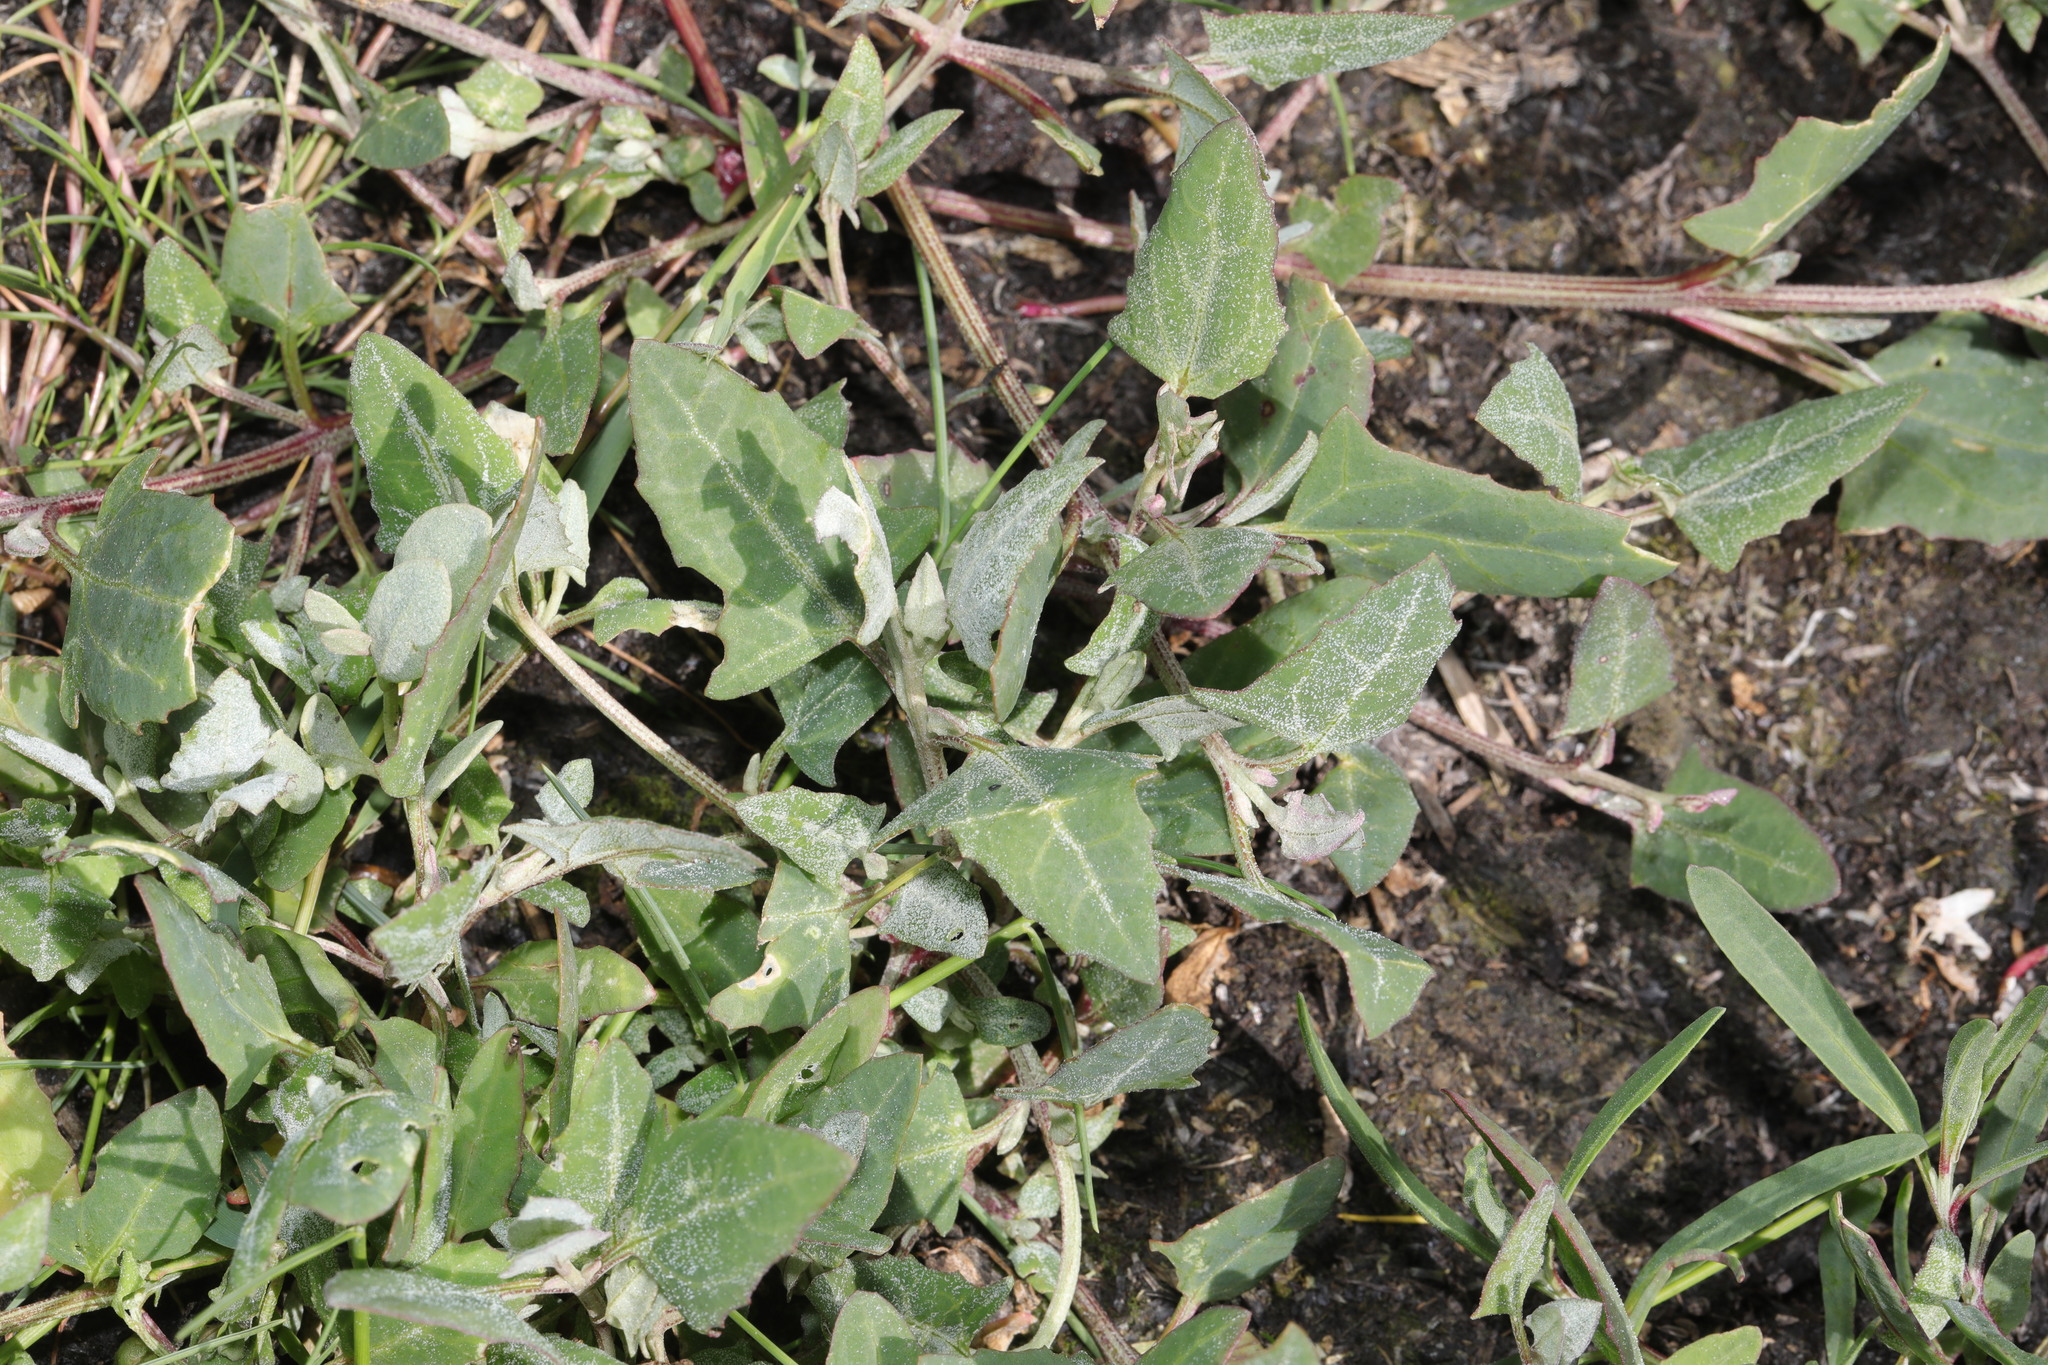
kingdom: Plantae
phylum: Tracheophyta
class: Magnoliopsida
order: Caryophyllales
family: Amaranthaceae
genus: Atriplex
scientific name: Atriplex prostrata
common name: Spear-leaved orache
